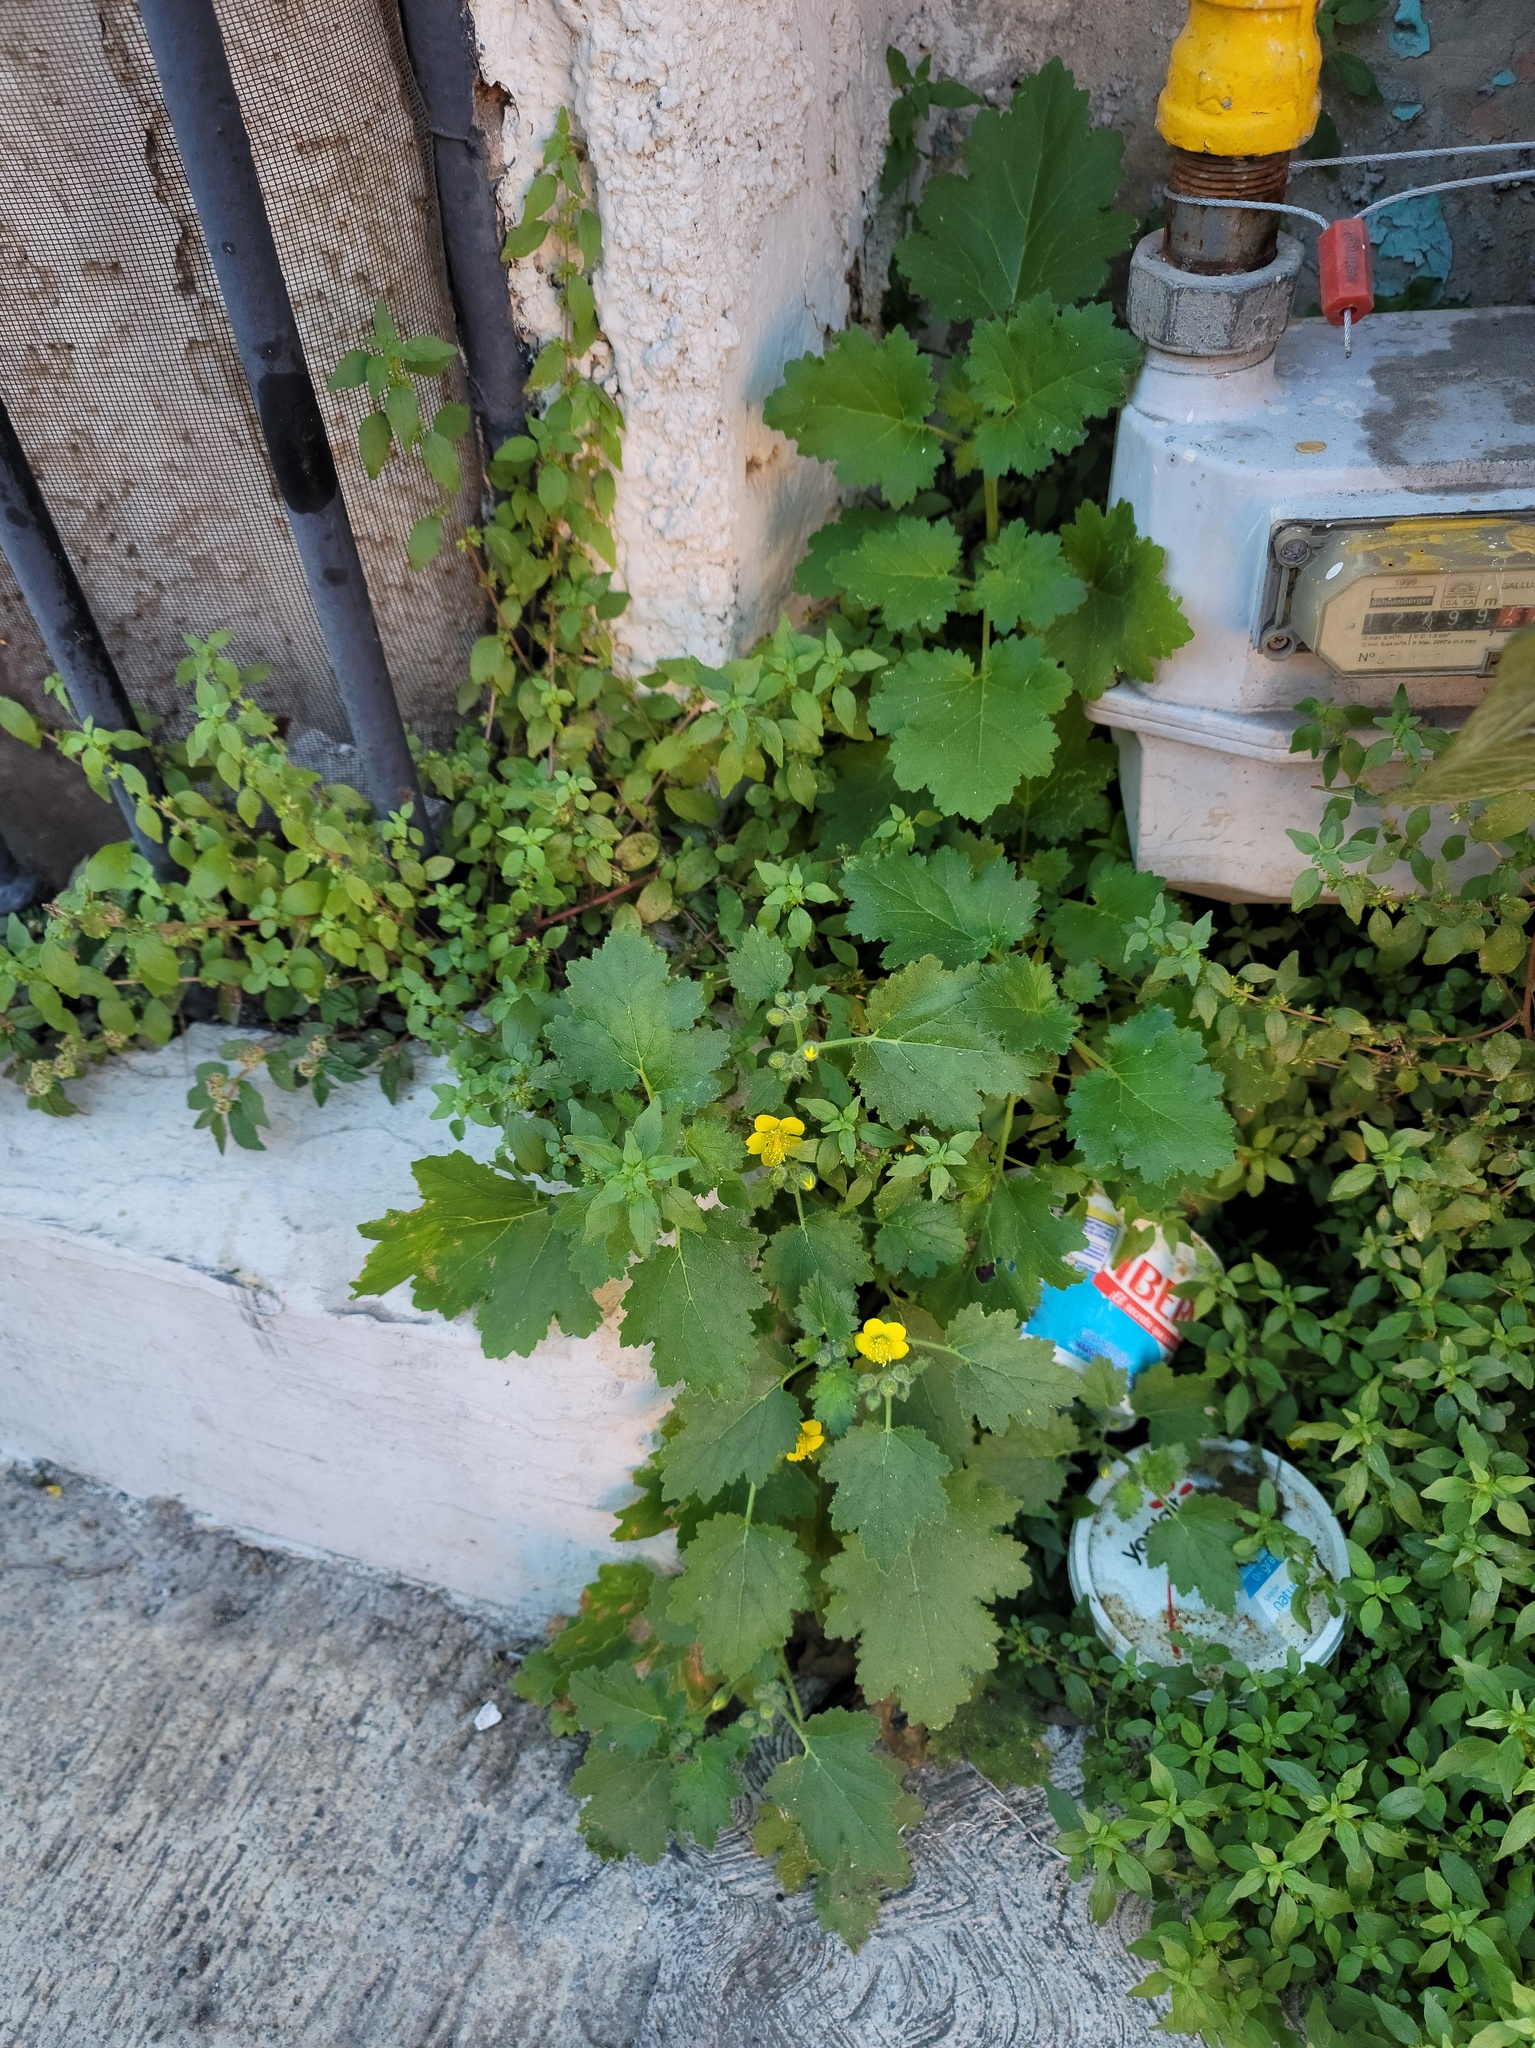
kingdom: Plantae
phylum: Tracheophyta
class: Magnoliopsida
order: Cornales
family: Loasaceae
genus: Eucnide
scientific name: Eucnide lobata
